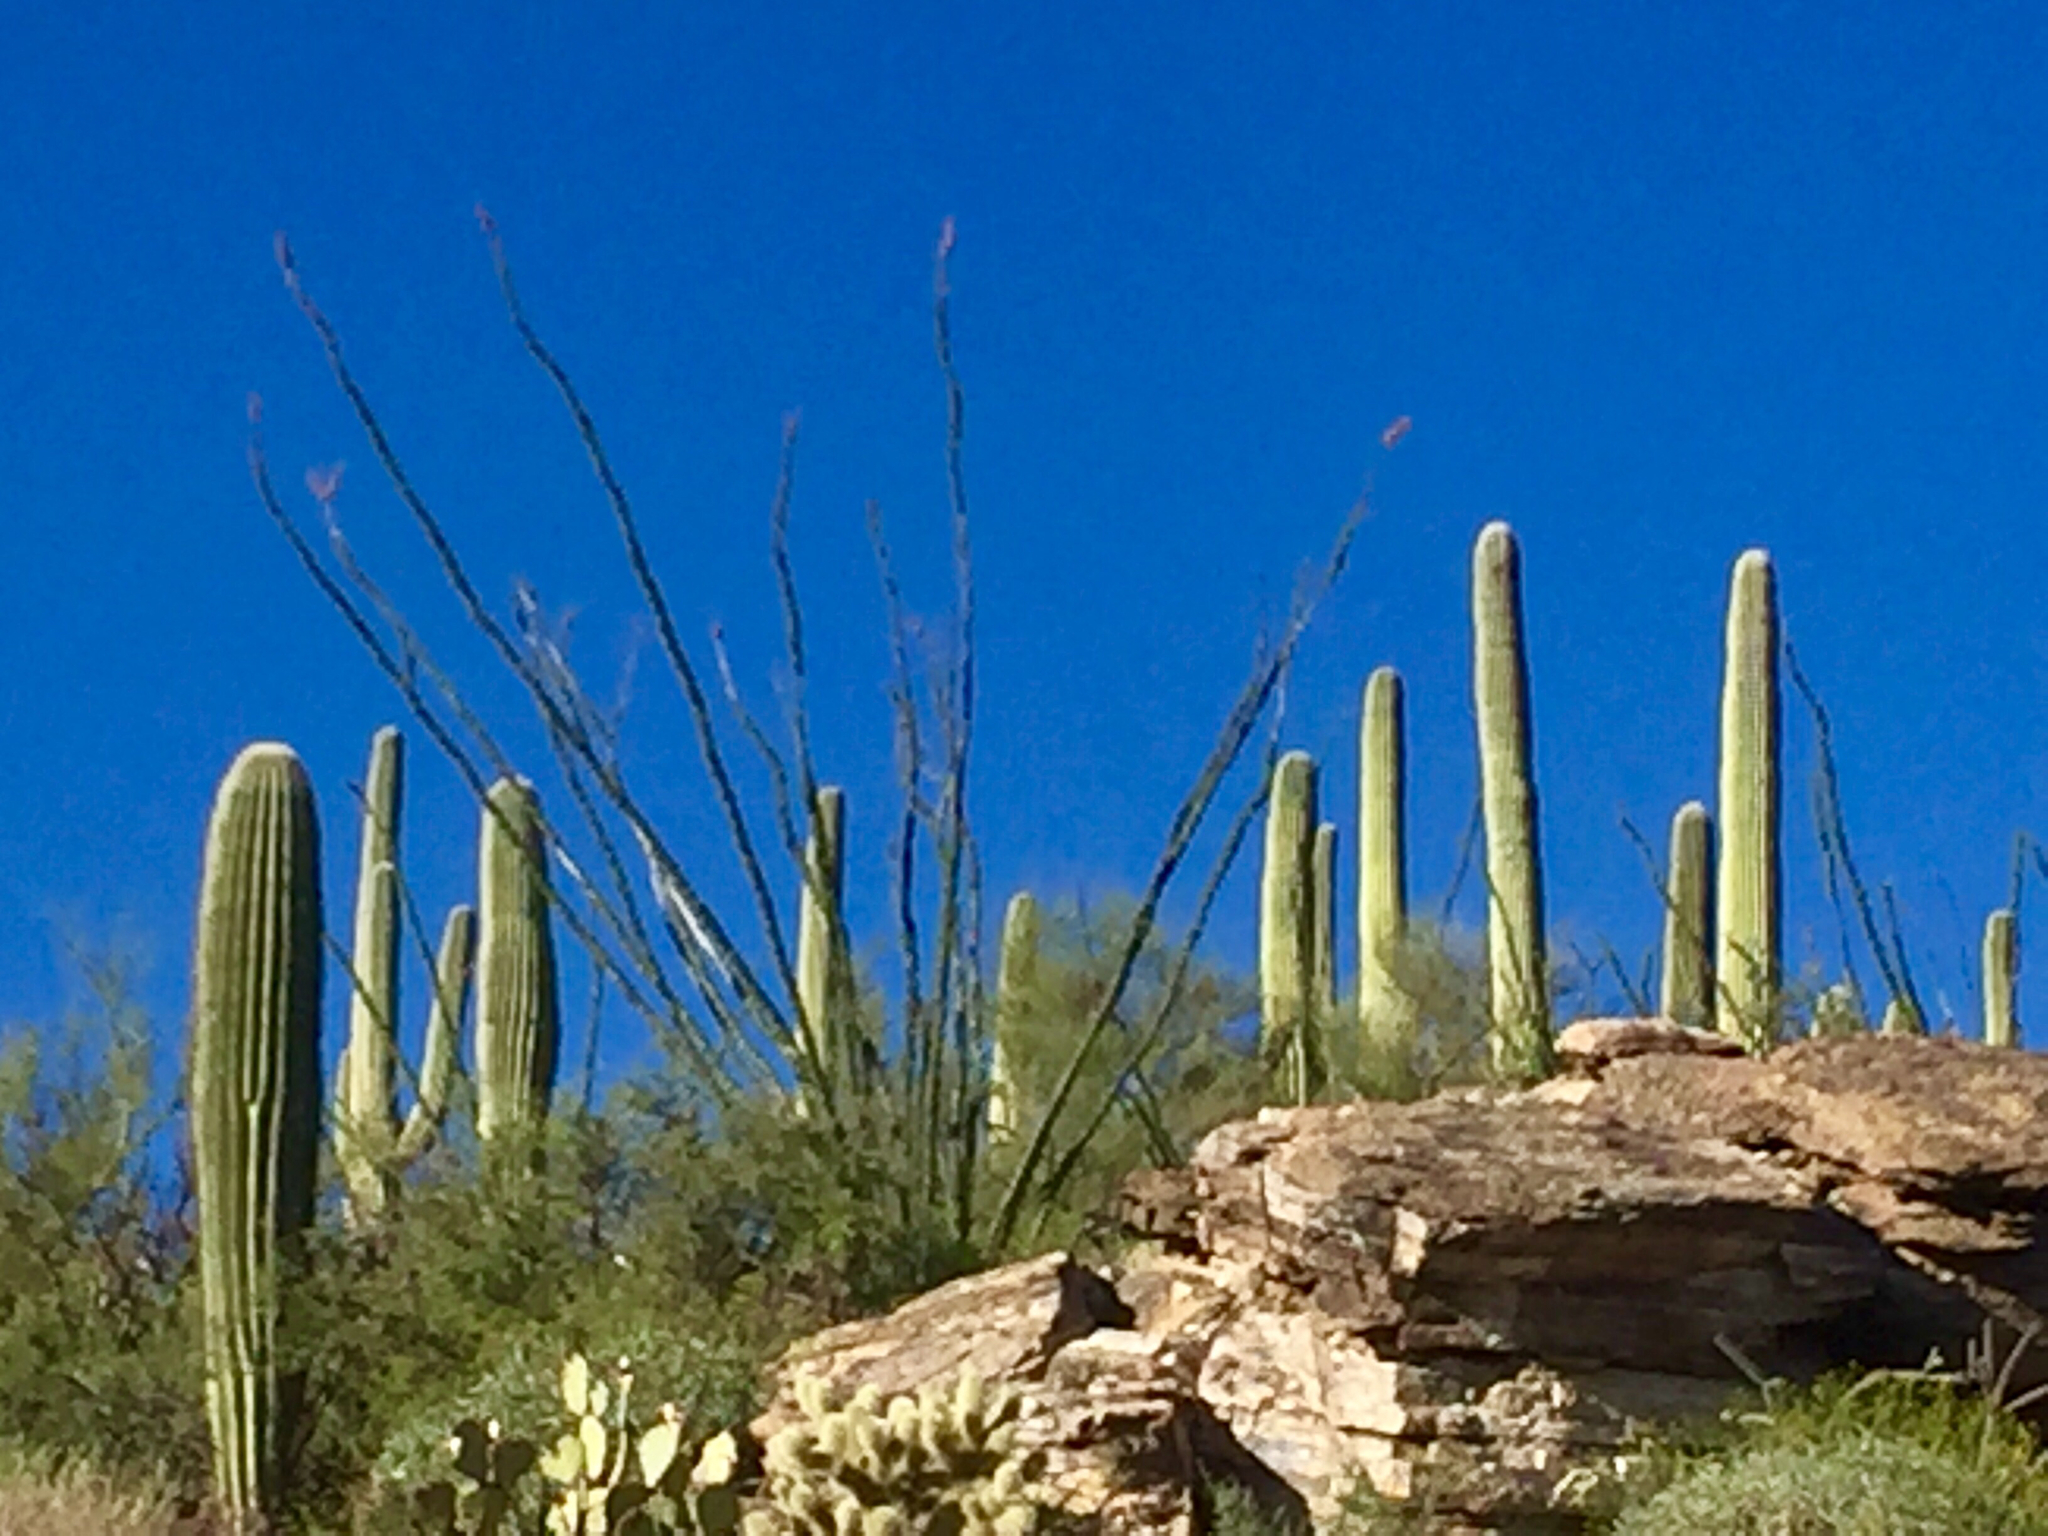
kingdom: Plantae
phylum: Tracheophyta
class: Magnoliopsida
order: Caryophyllales
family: Cactaceae
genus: Carnegiea
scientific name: Carnegiea gigantea
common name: Saguaro
